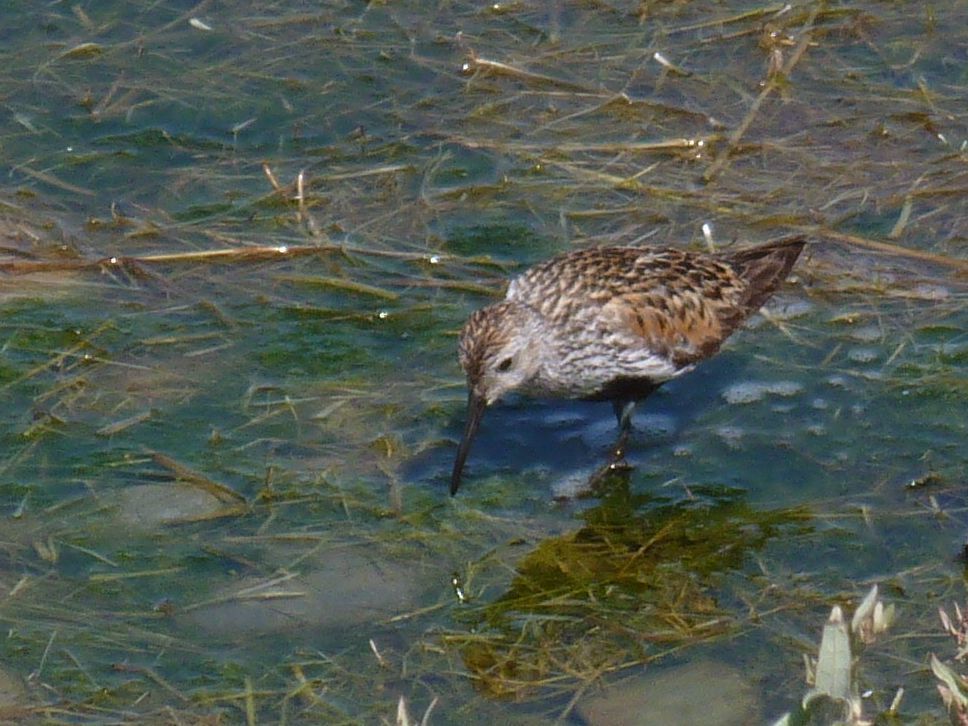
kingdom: Animalia
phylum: Chordata
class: Aves
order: Charadriiformes
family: Scolopacidae
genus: Calidris
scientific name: Calidris alpina
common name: Dunlin
